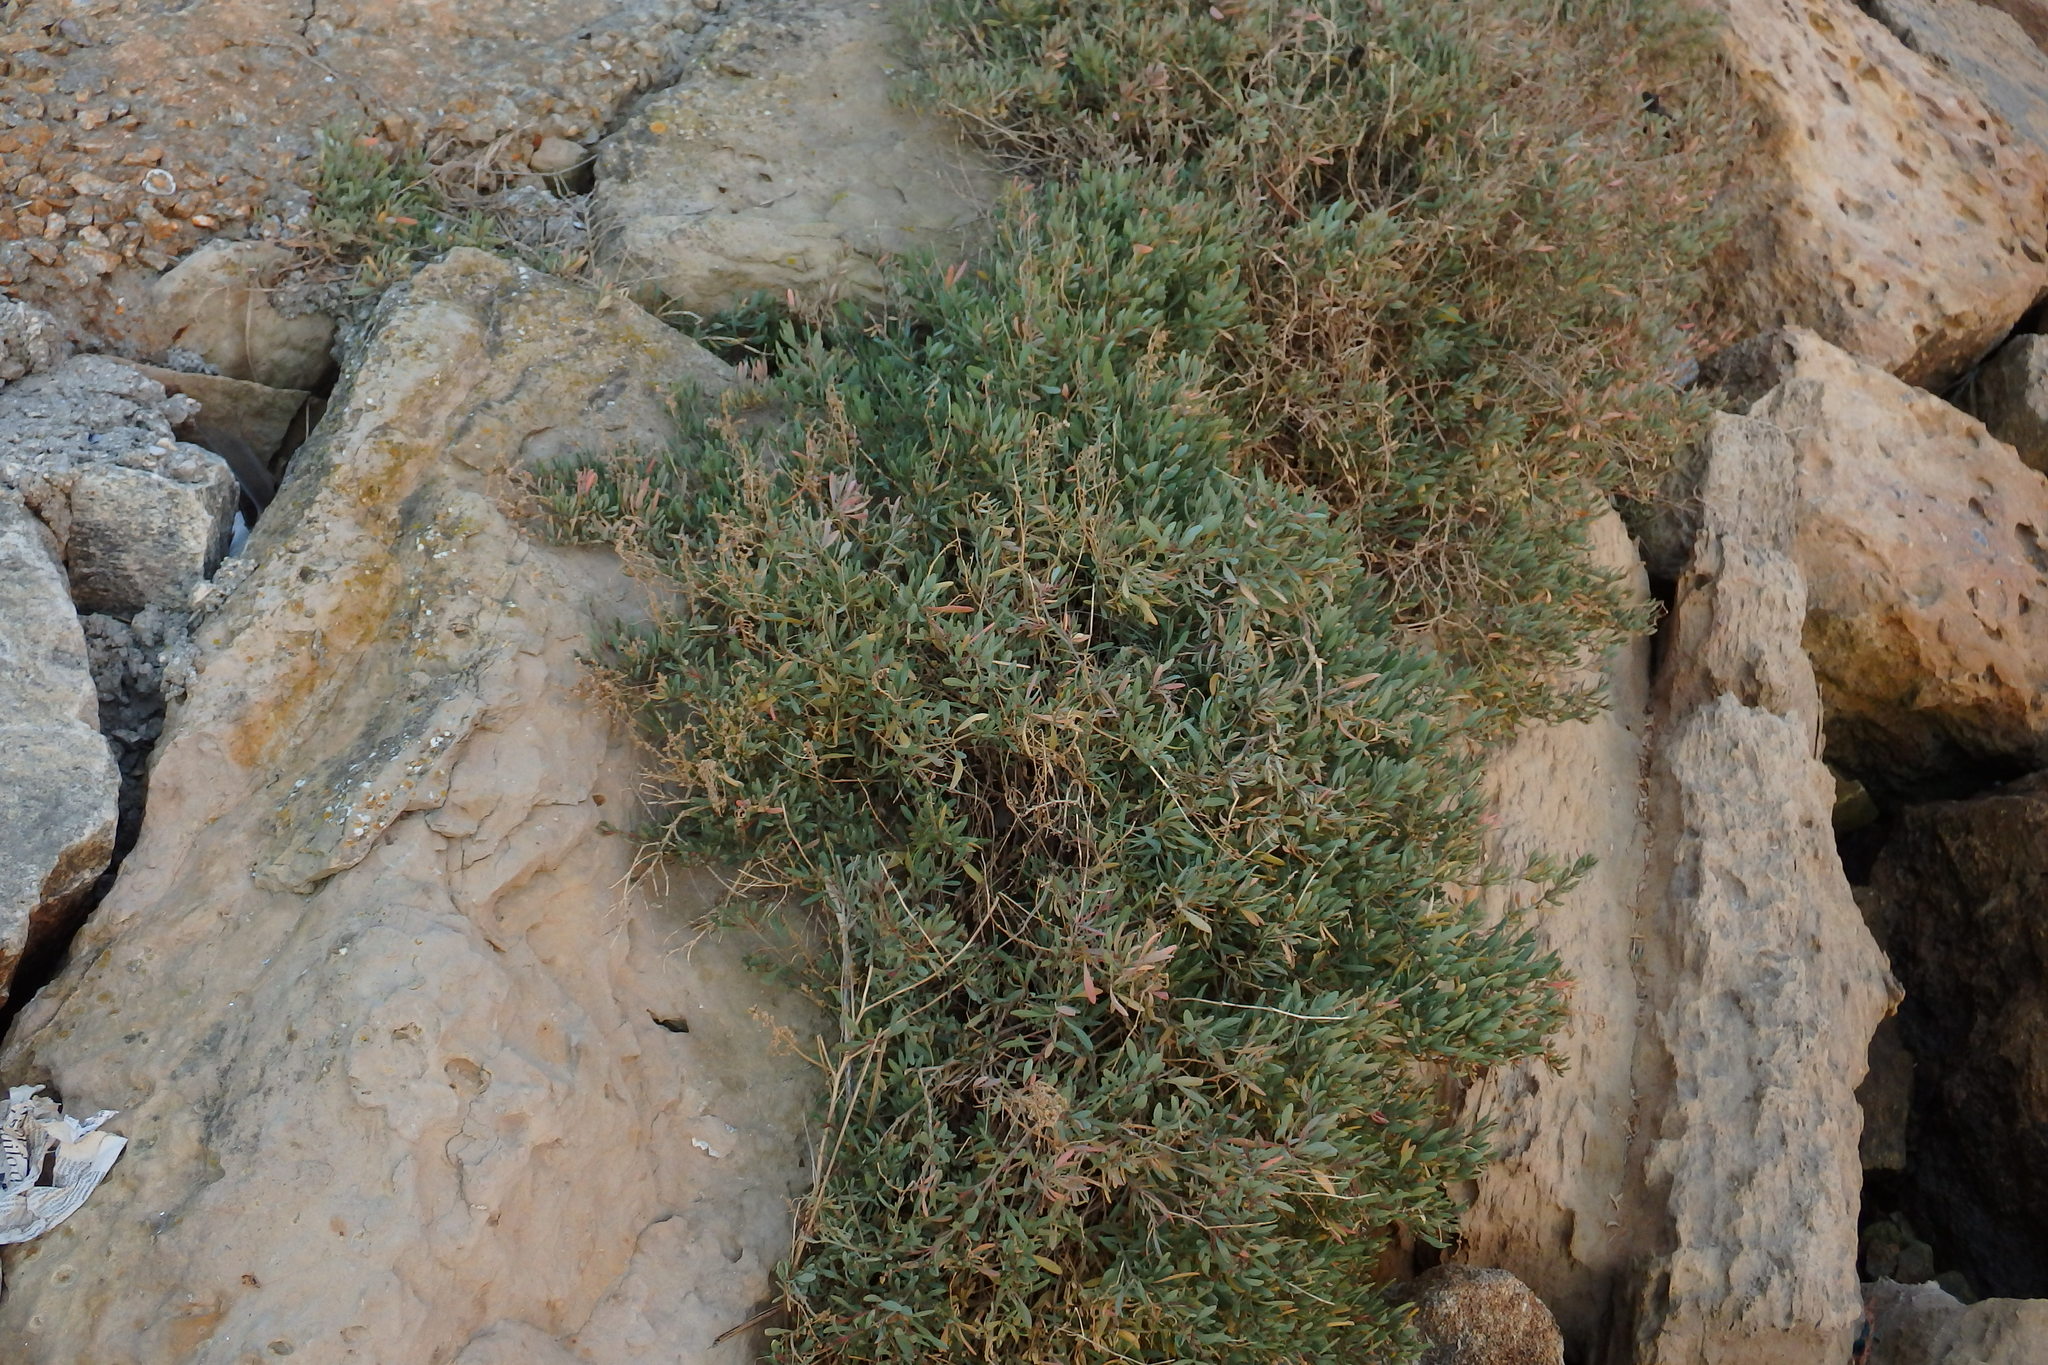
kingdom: Plantae
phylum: Tracheophyta
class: Magnoliopsida
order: Caryophyllales
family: Amaranthaceae
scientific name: Amaranthaceae
